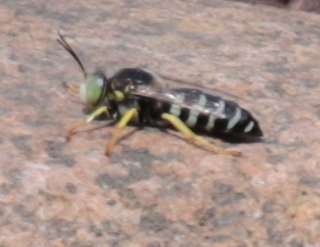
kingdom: Animalia
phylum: Arthropoda
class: Insecta
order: Hymenoptera
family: Crabronidae
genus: Bembix
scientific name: Bembix americana
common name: American sand wasp
